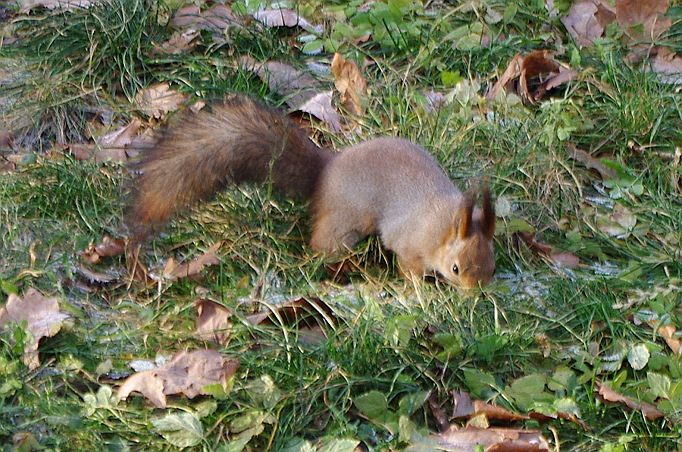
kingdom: Animalia
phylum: Chordata
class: Mammalia
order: Rodentia
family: Sciuridae
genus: Sciurus
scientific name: Sciurus vulgaris
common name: Eurasian red squirrel
